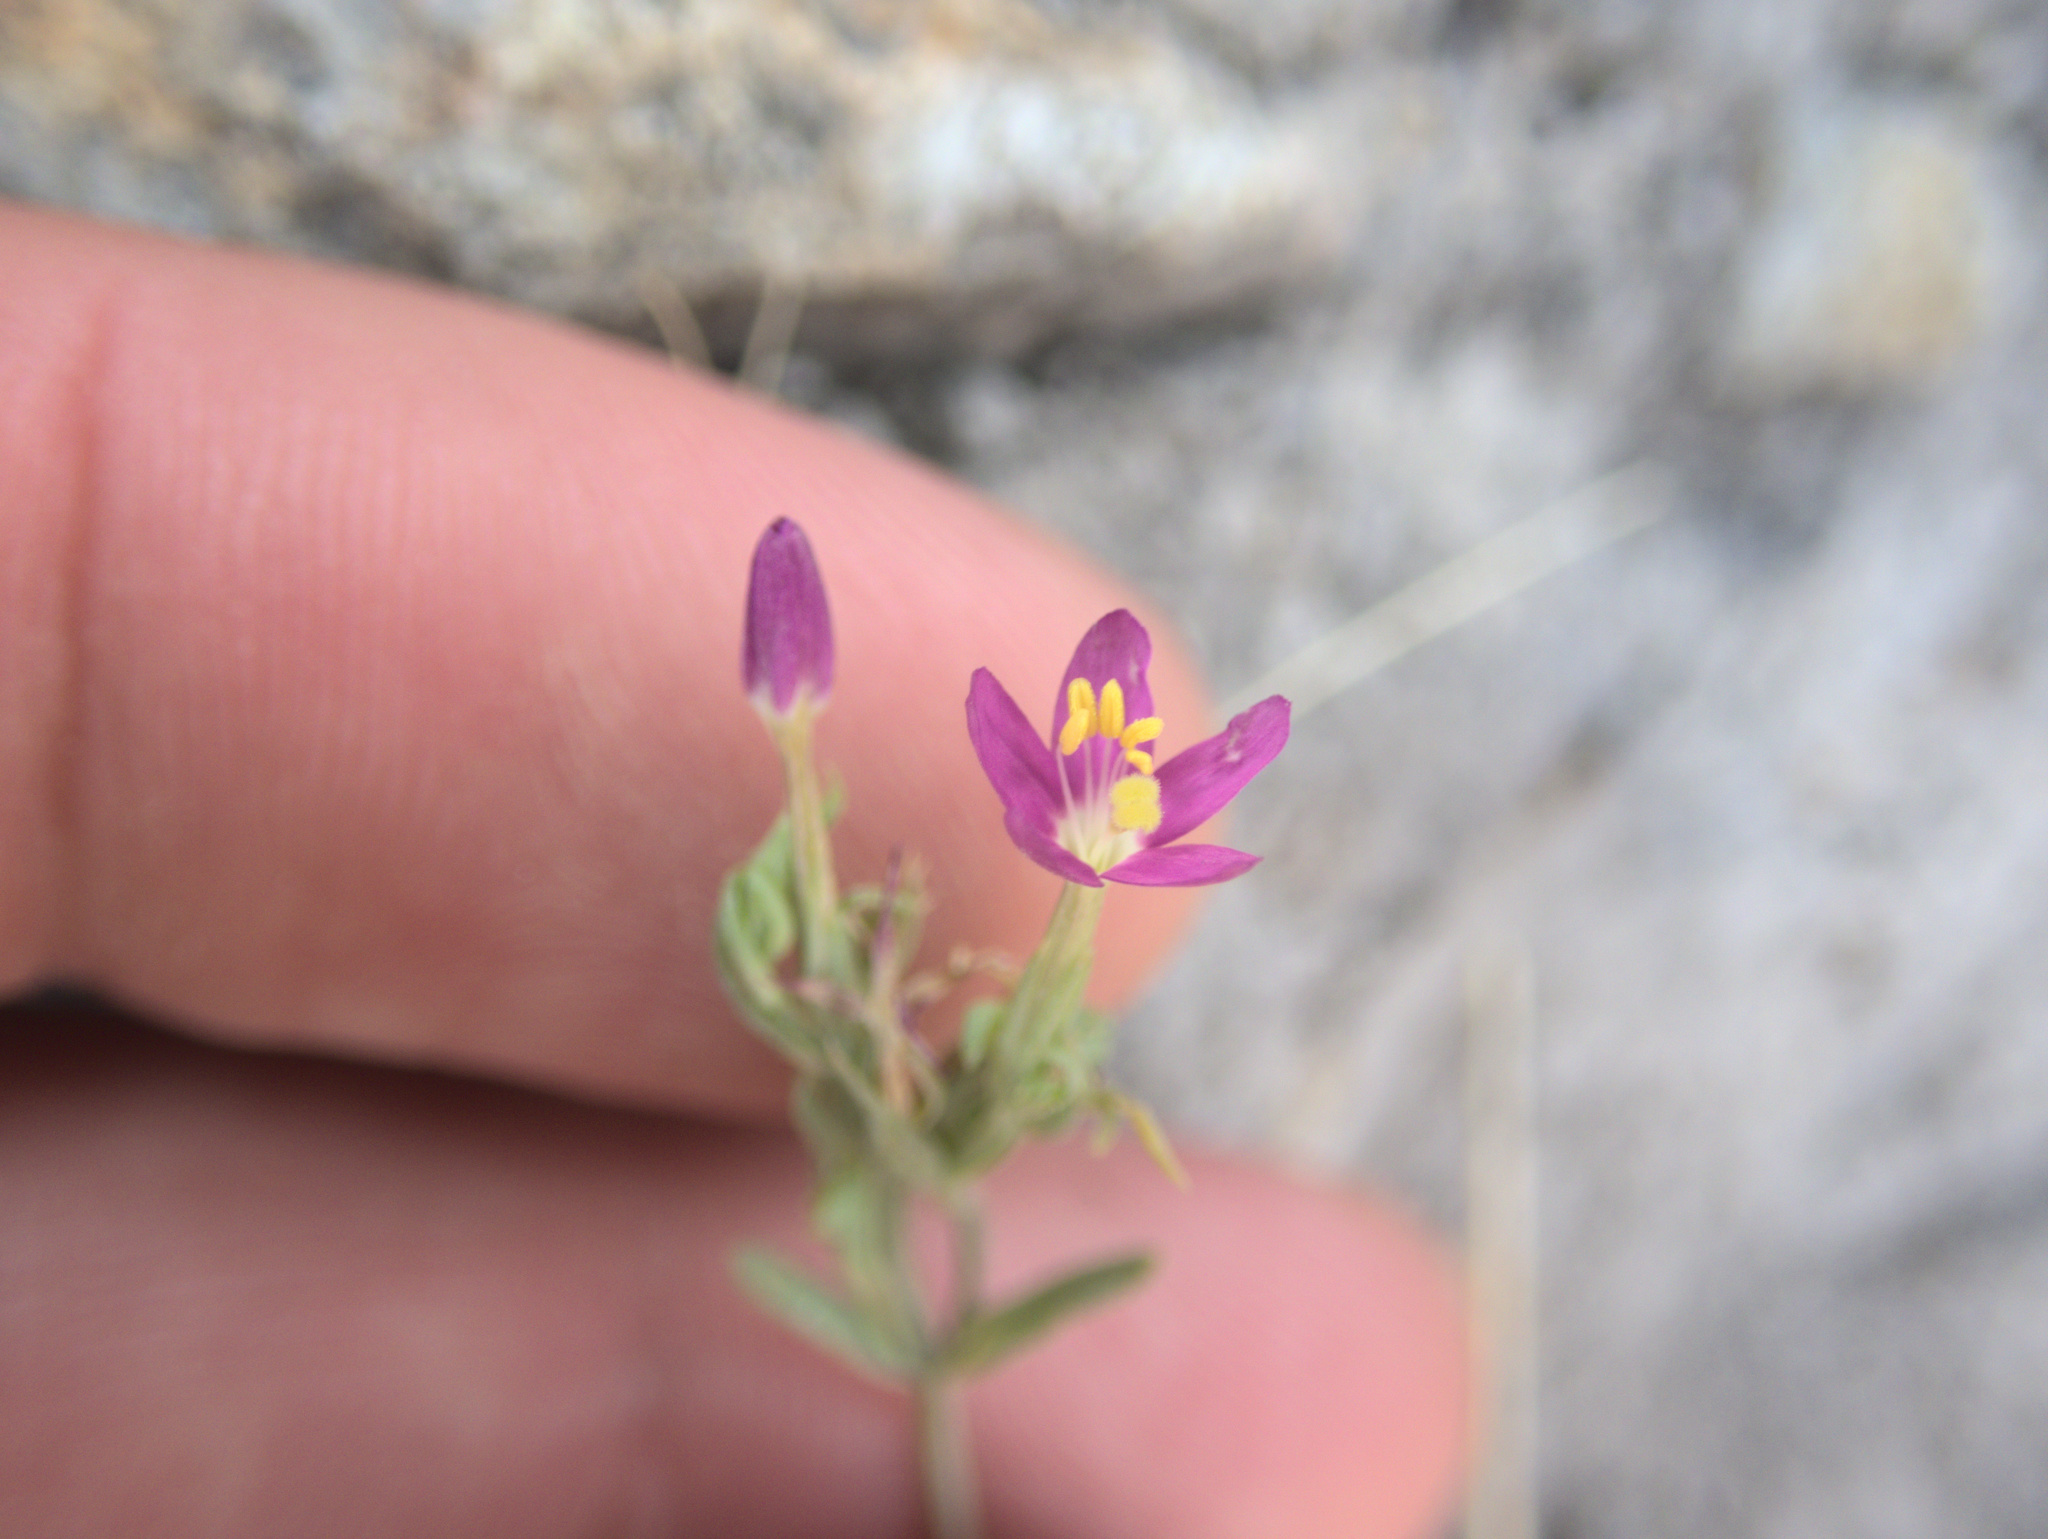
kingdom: Plantae
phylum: Tracheophyta
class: Magnoliopsida
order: Gentianales
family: Gentianaceae
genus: Centaurium
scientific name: Centaurium erythraea
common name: Common centaury
